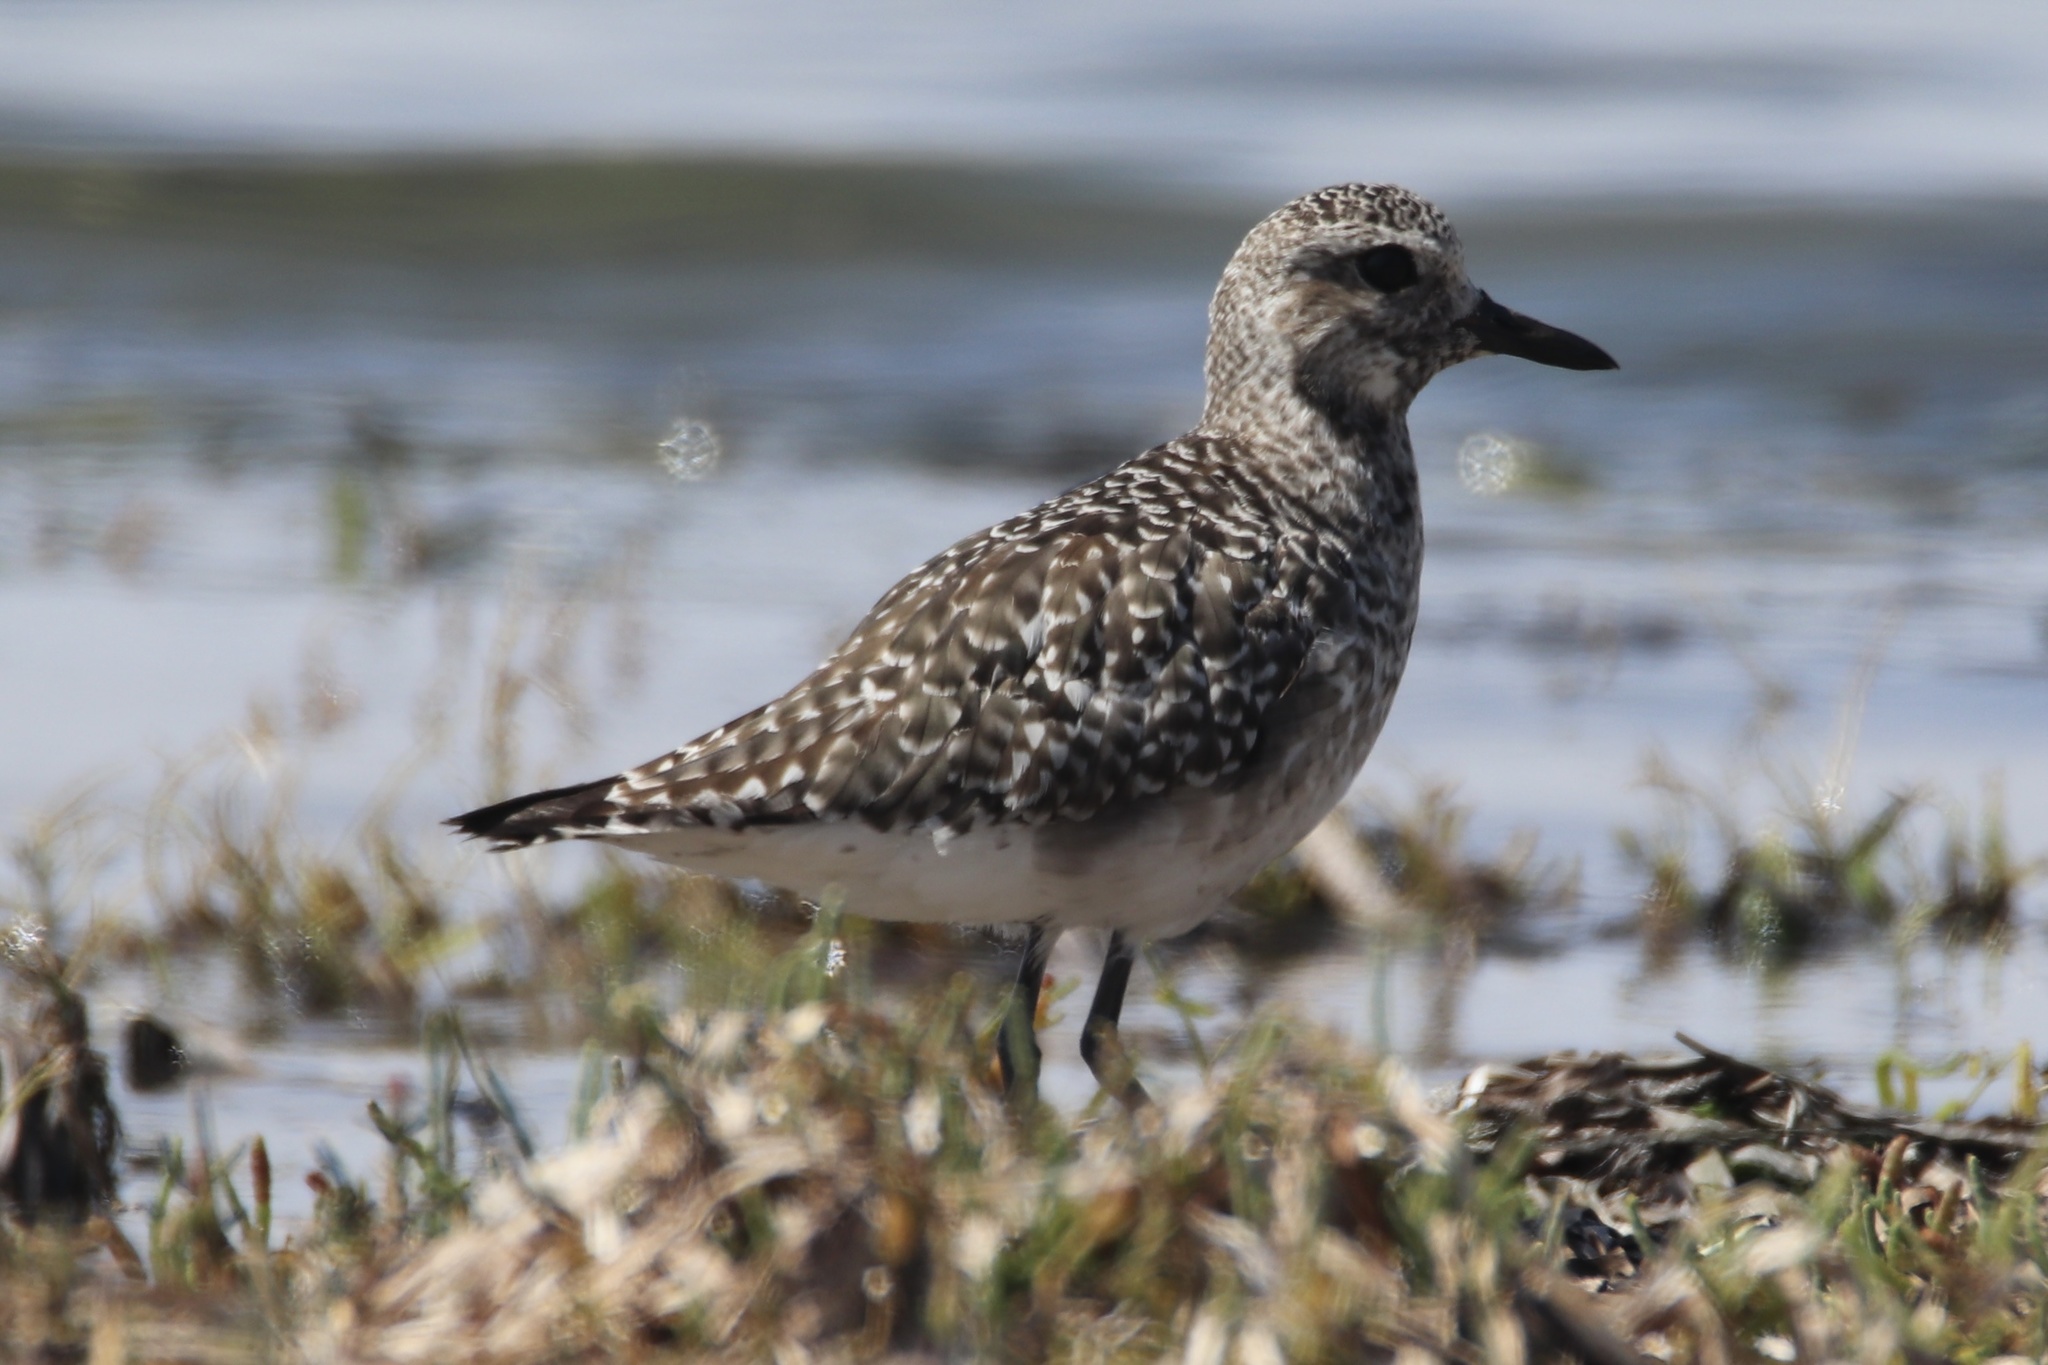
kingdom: Animalia
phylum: Chordata
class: Aves
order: Charadriiformes
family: Charadriidae
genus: Pluvialis
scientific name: Pluvialis squatarola
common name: Grey plover
